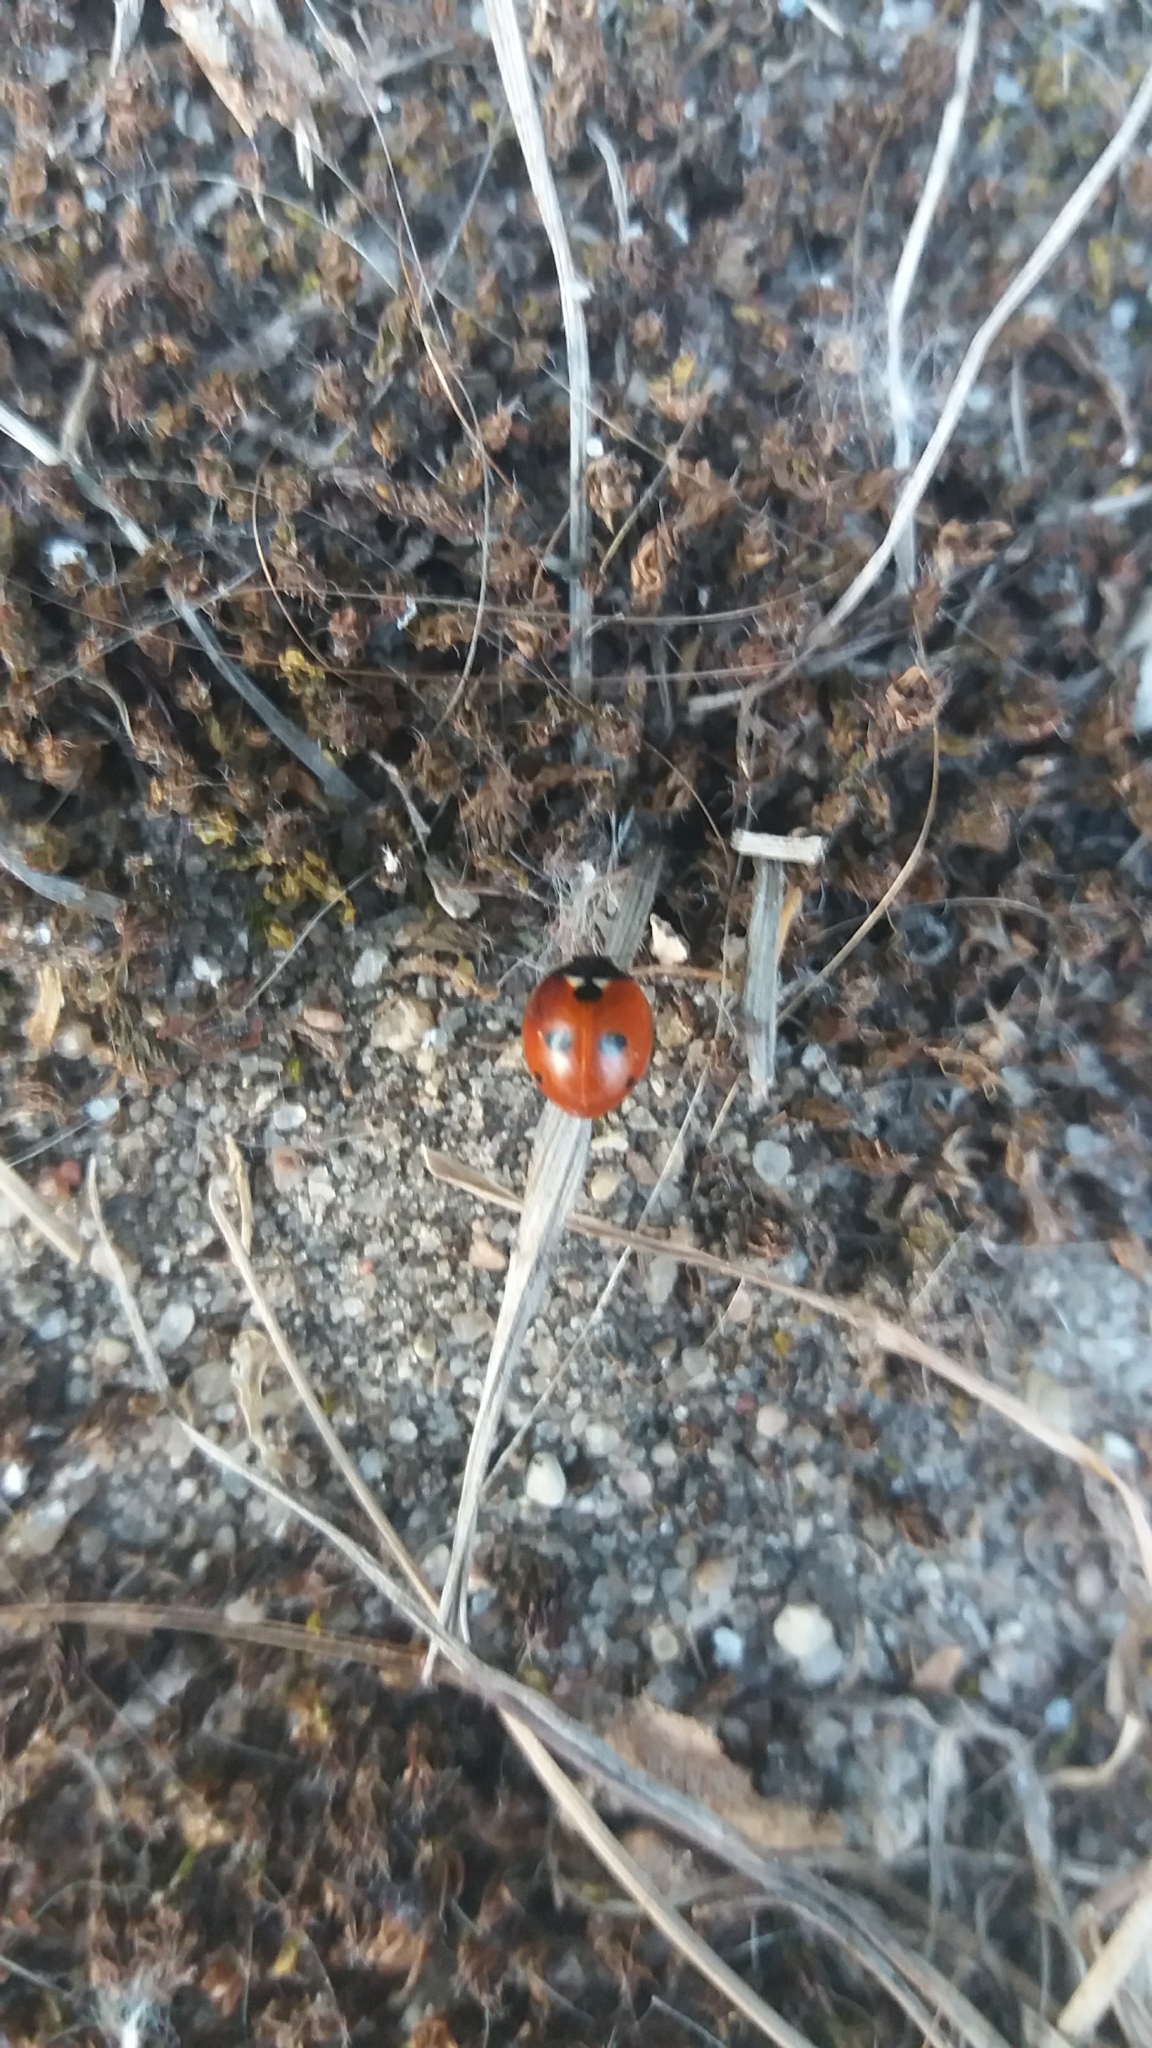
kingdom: Animalia
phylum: Arthropoda
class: Insecta
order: Coleoptera
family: Coccinellidae
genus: Coccinella
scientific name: Coccinella quinquepunctata
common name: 5-spot ladybird
